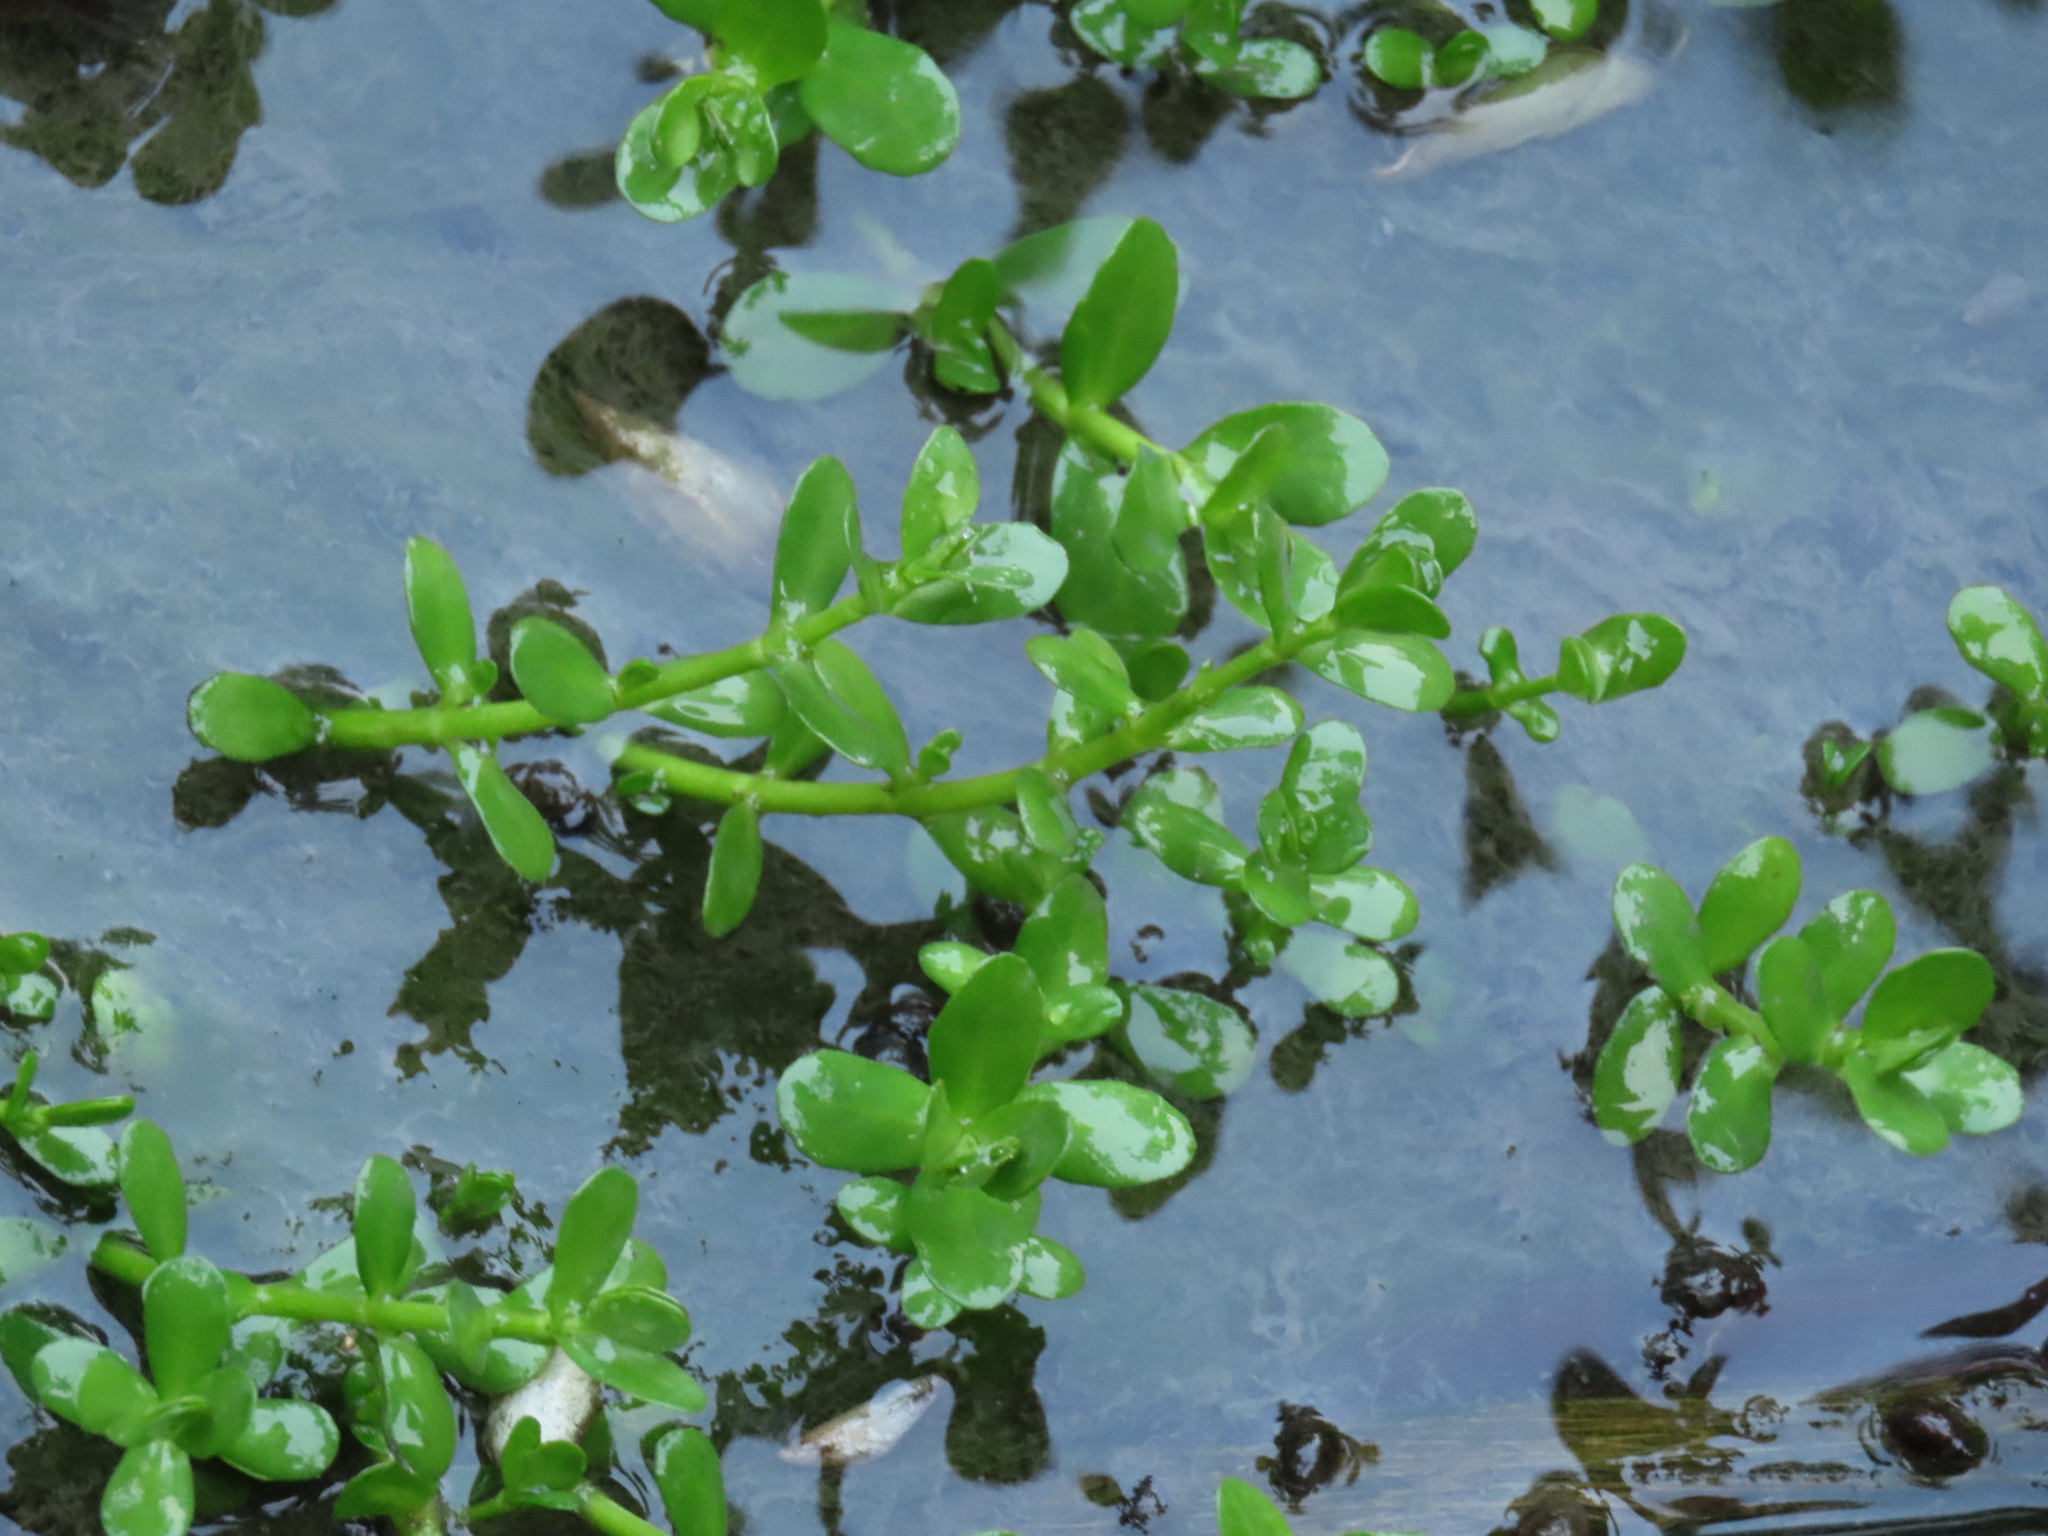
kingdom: Plantae
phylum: Tracheophyta
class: Magnoliopsida
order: Lamiales
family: Plantaginaceae
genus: Bacopa
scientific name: Bacopa monnieri
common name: Indian-pennywort
